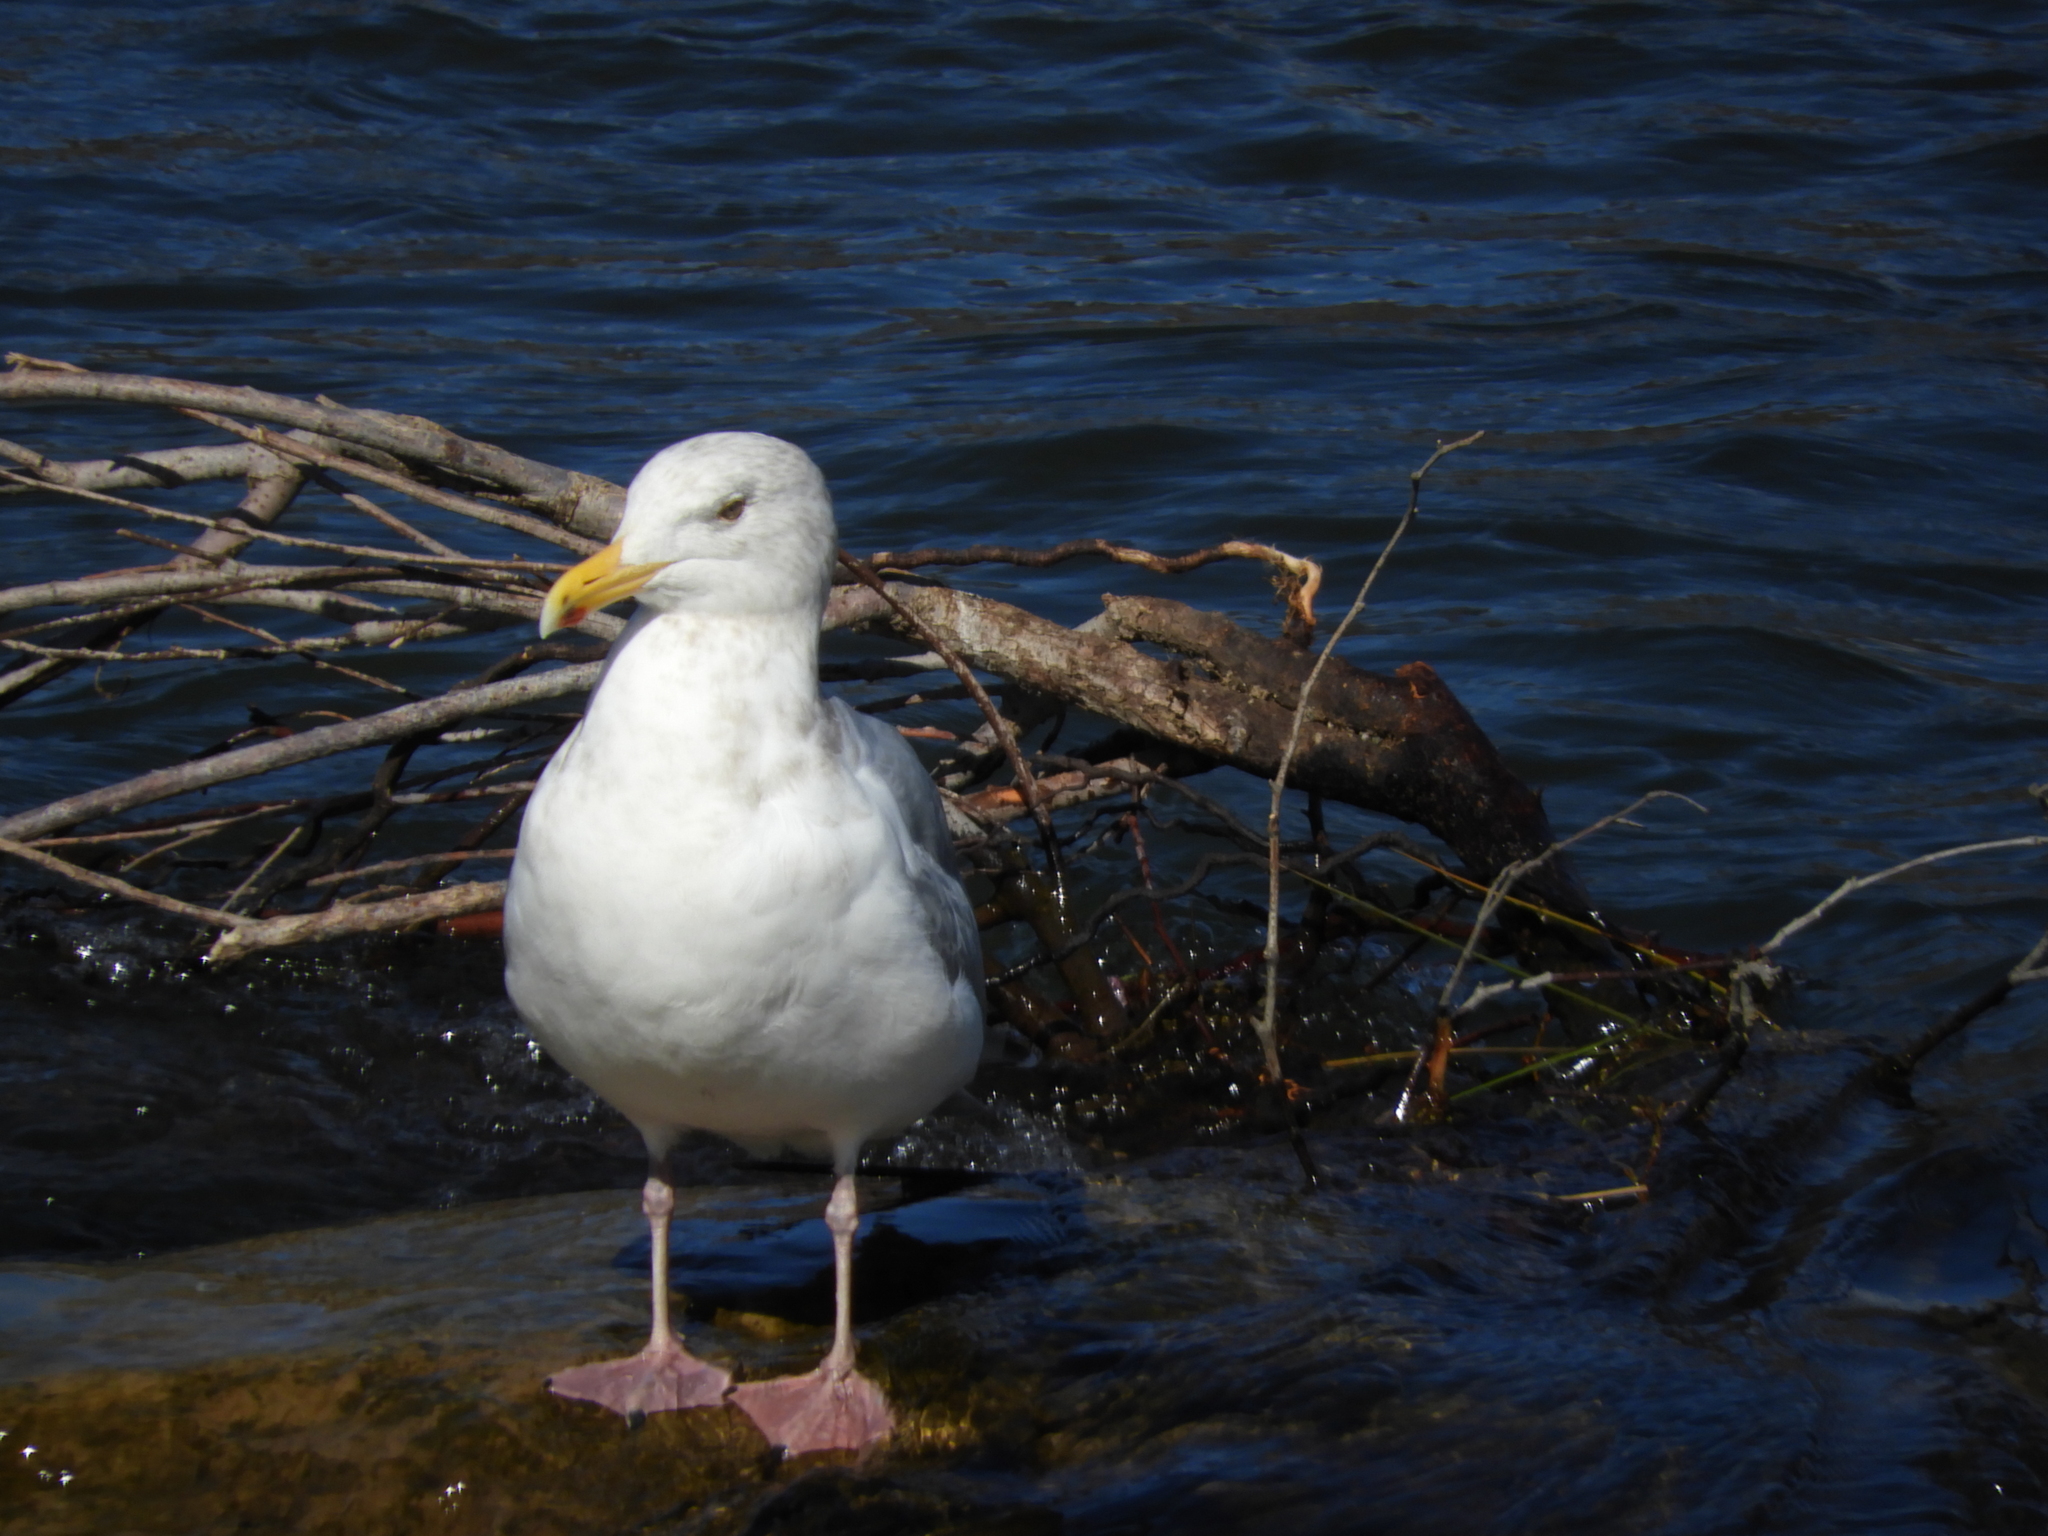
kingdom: Animalia
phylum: Chordata
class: Aves
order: Charadriiformes
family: Laridae
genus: Larus
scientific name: Larus argentatus
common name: Herring gull
